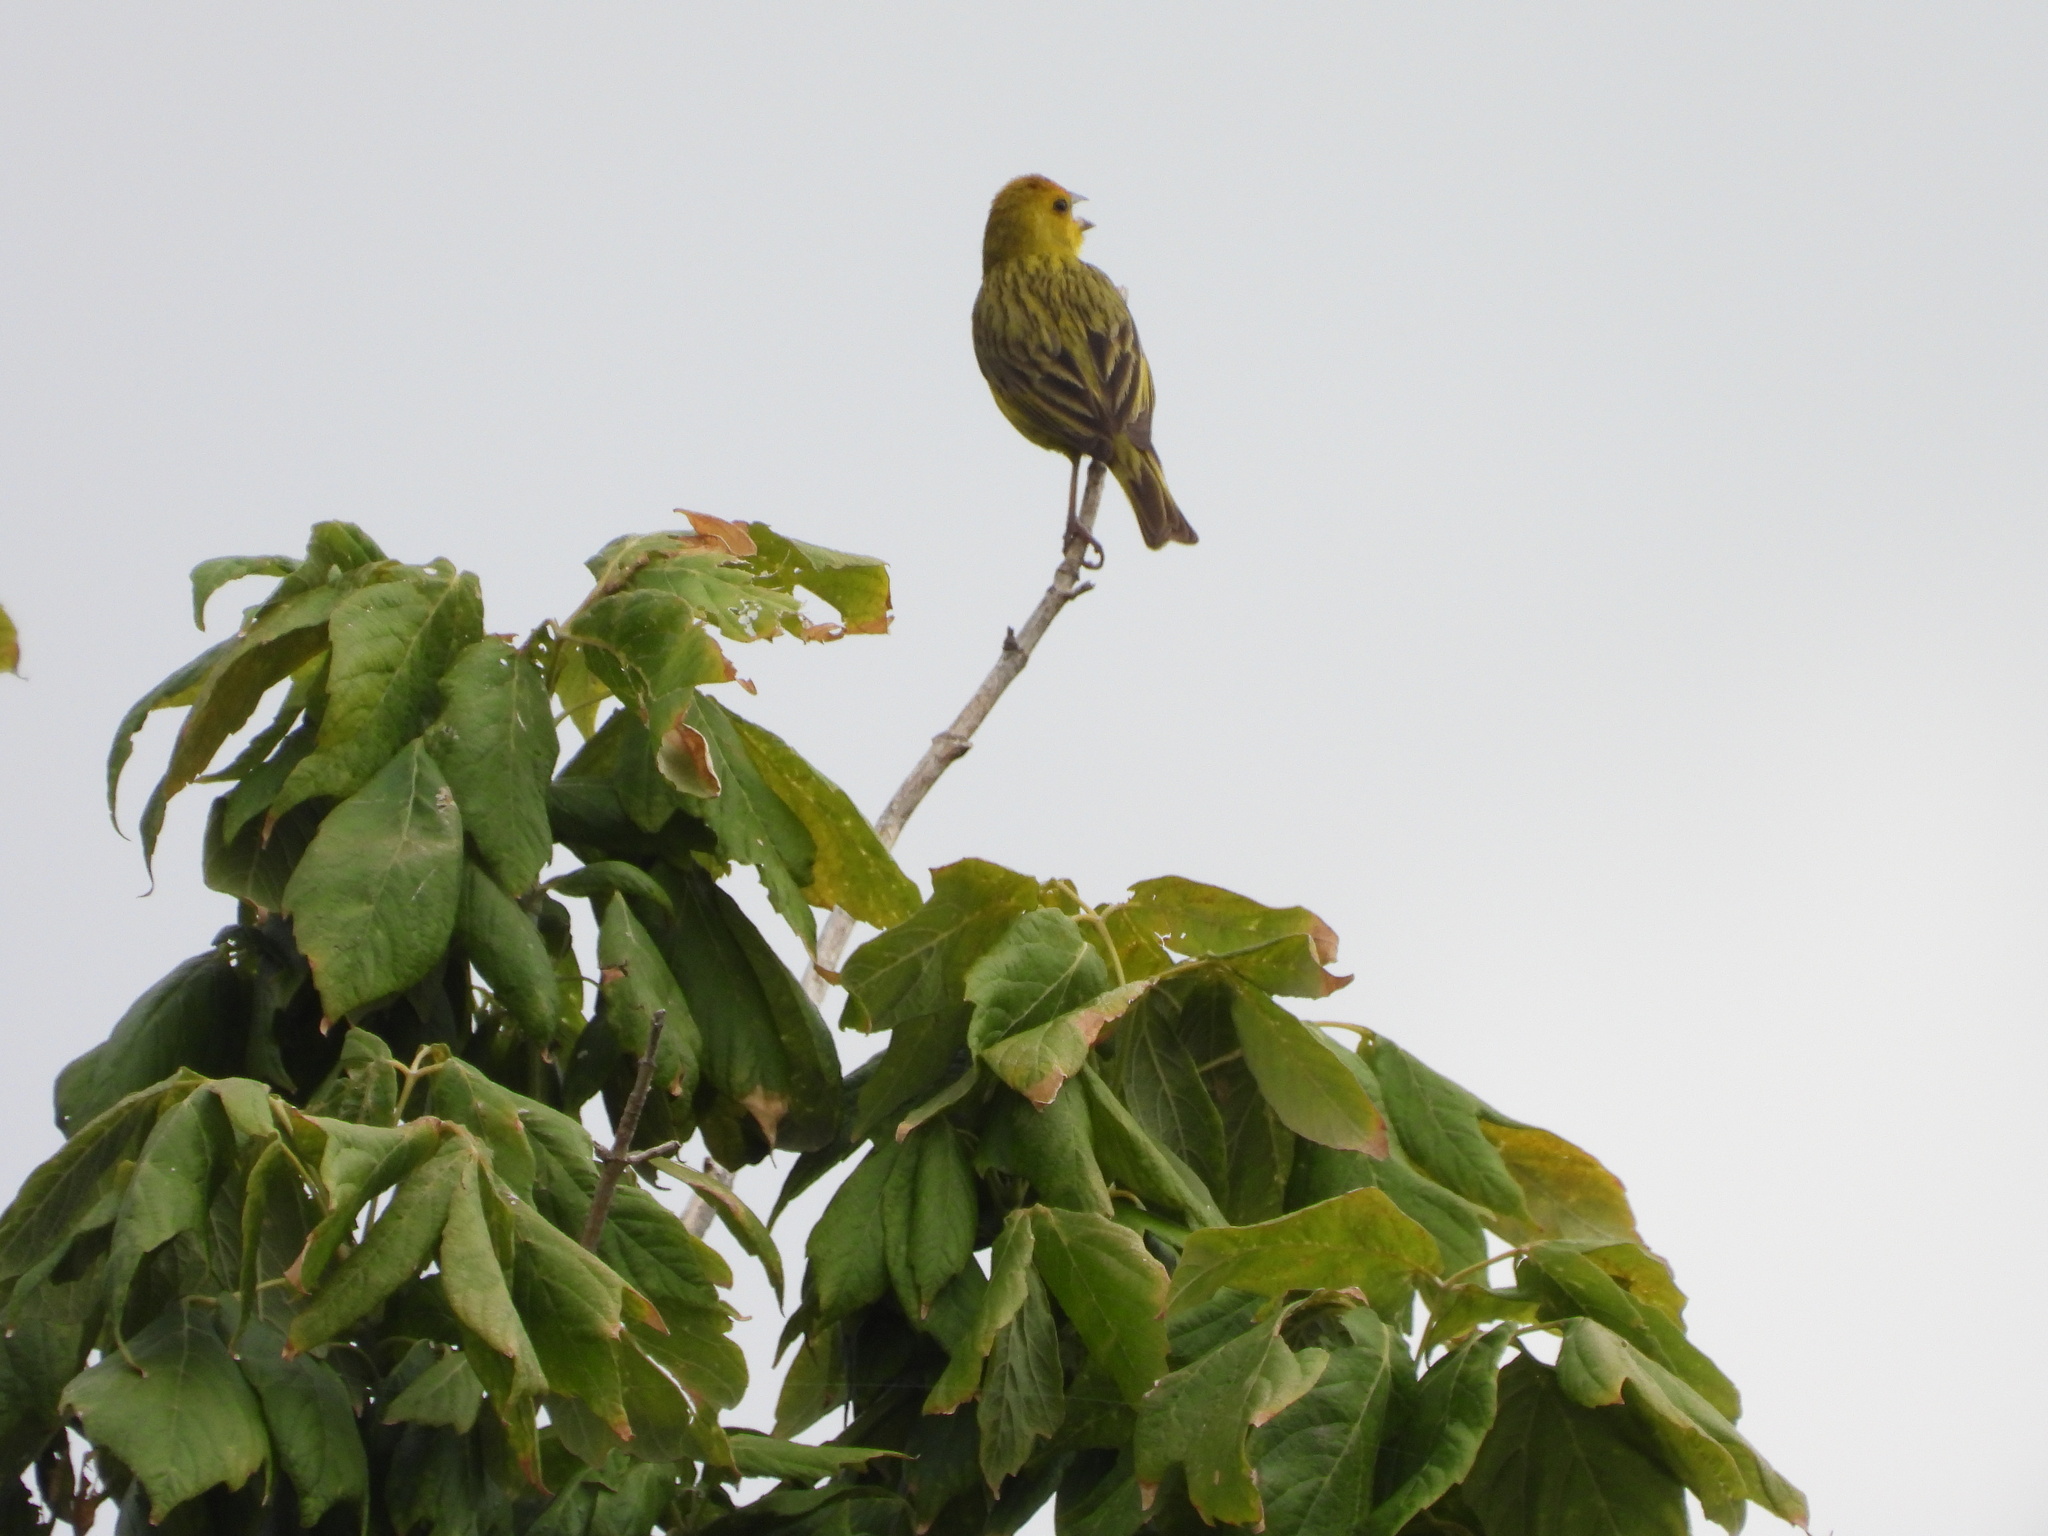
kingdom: Animalia
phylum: Chordata
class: Aves
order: Passeriformes
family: Thraupidae
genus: Sicalis
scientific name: Sicalis flaveola
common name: Saffron finch
